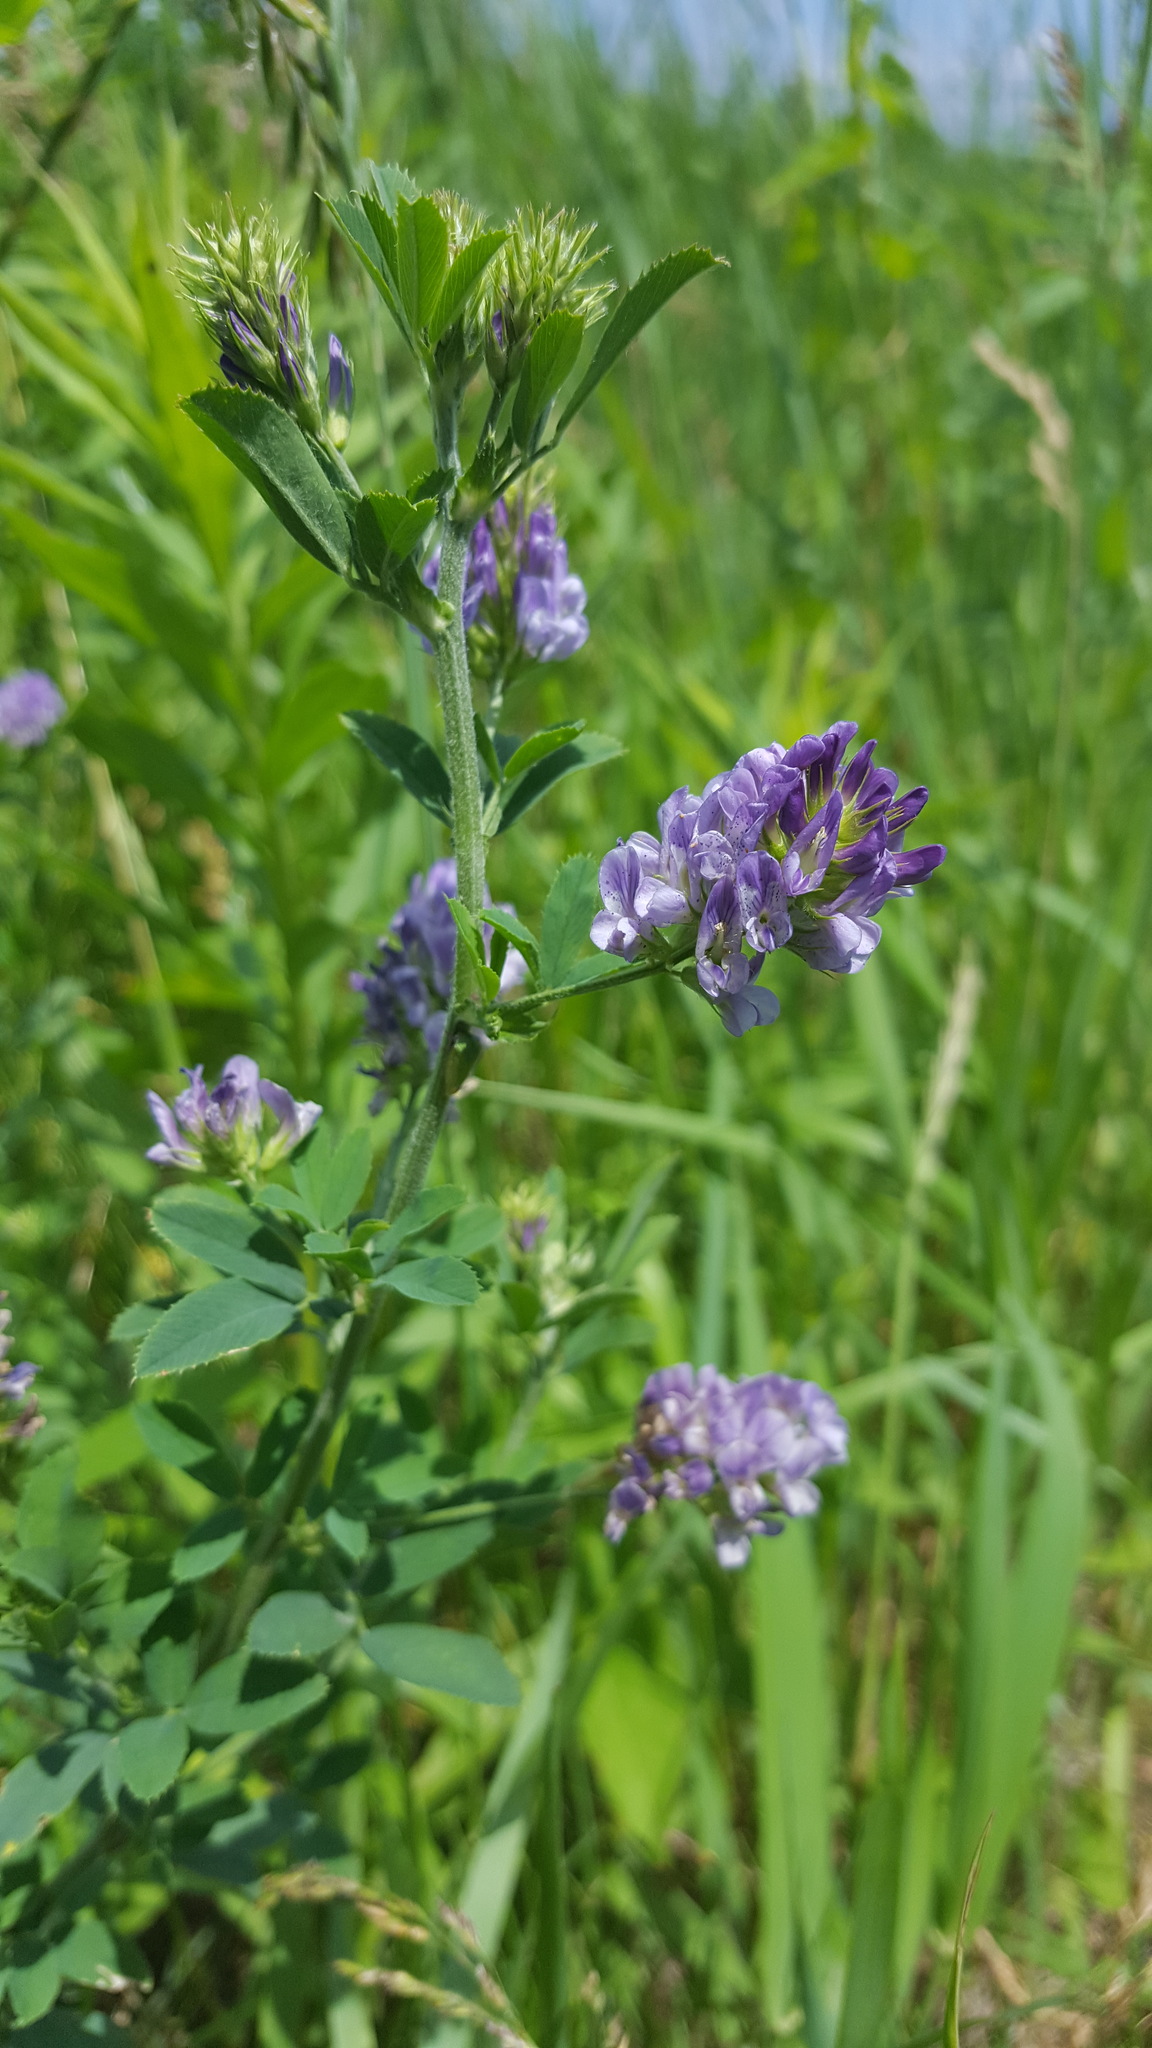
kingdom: Plantae
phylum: Tracheophyta
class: Magnoliopsida
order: Fabales
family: Fabaceae
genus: Medicago
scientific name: Medicago sativa
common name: Alfalfa
